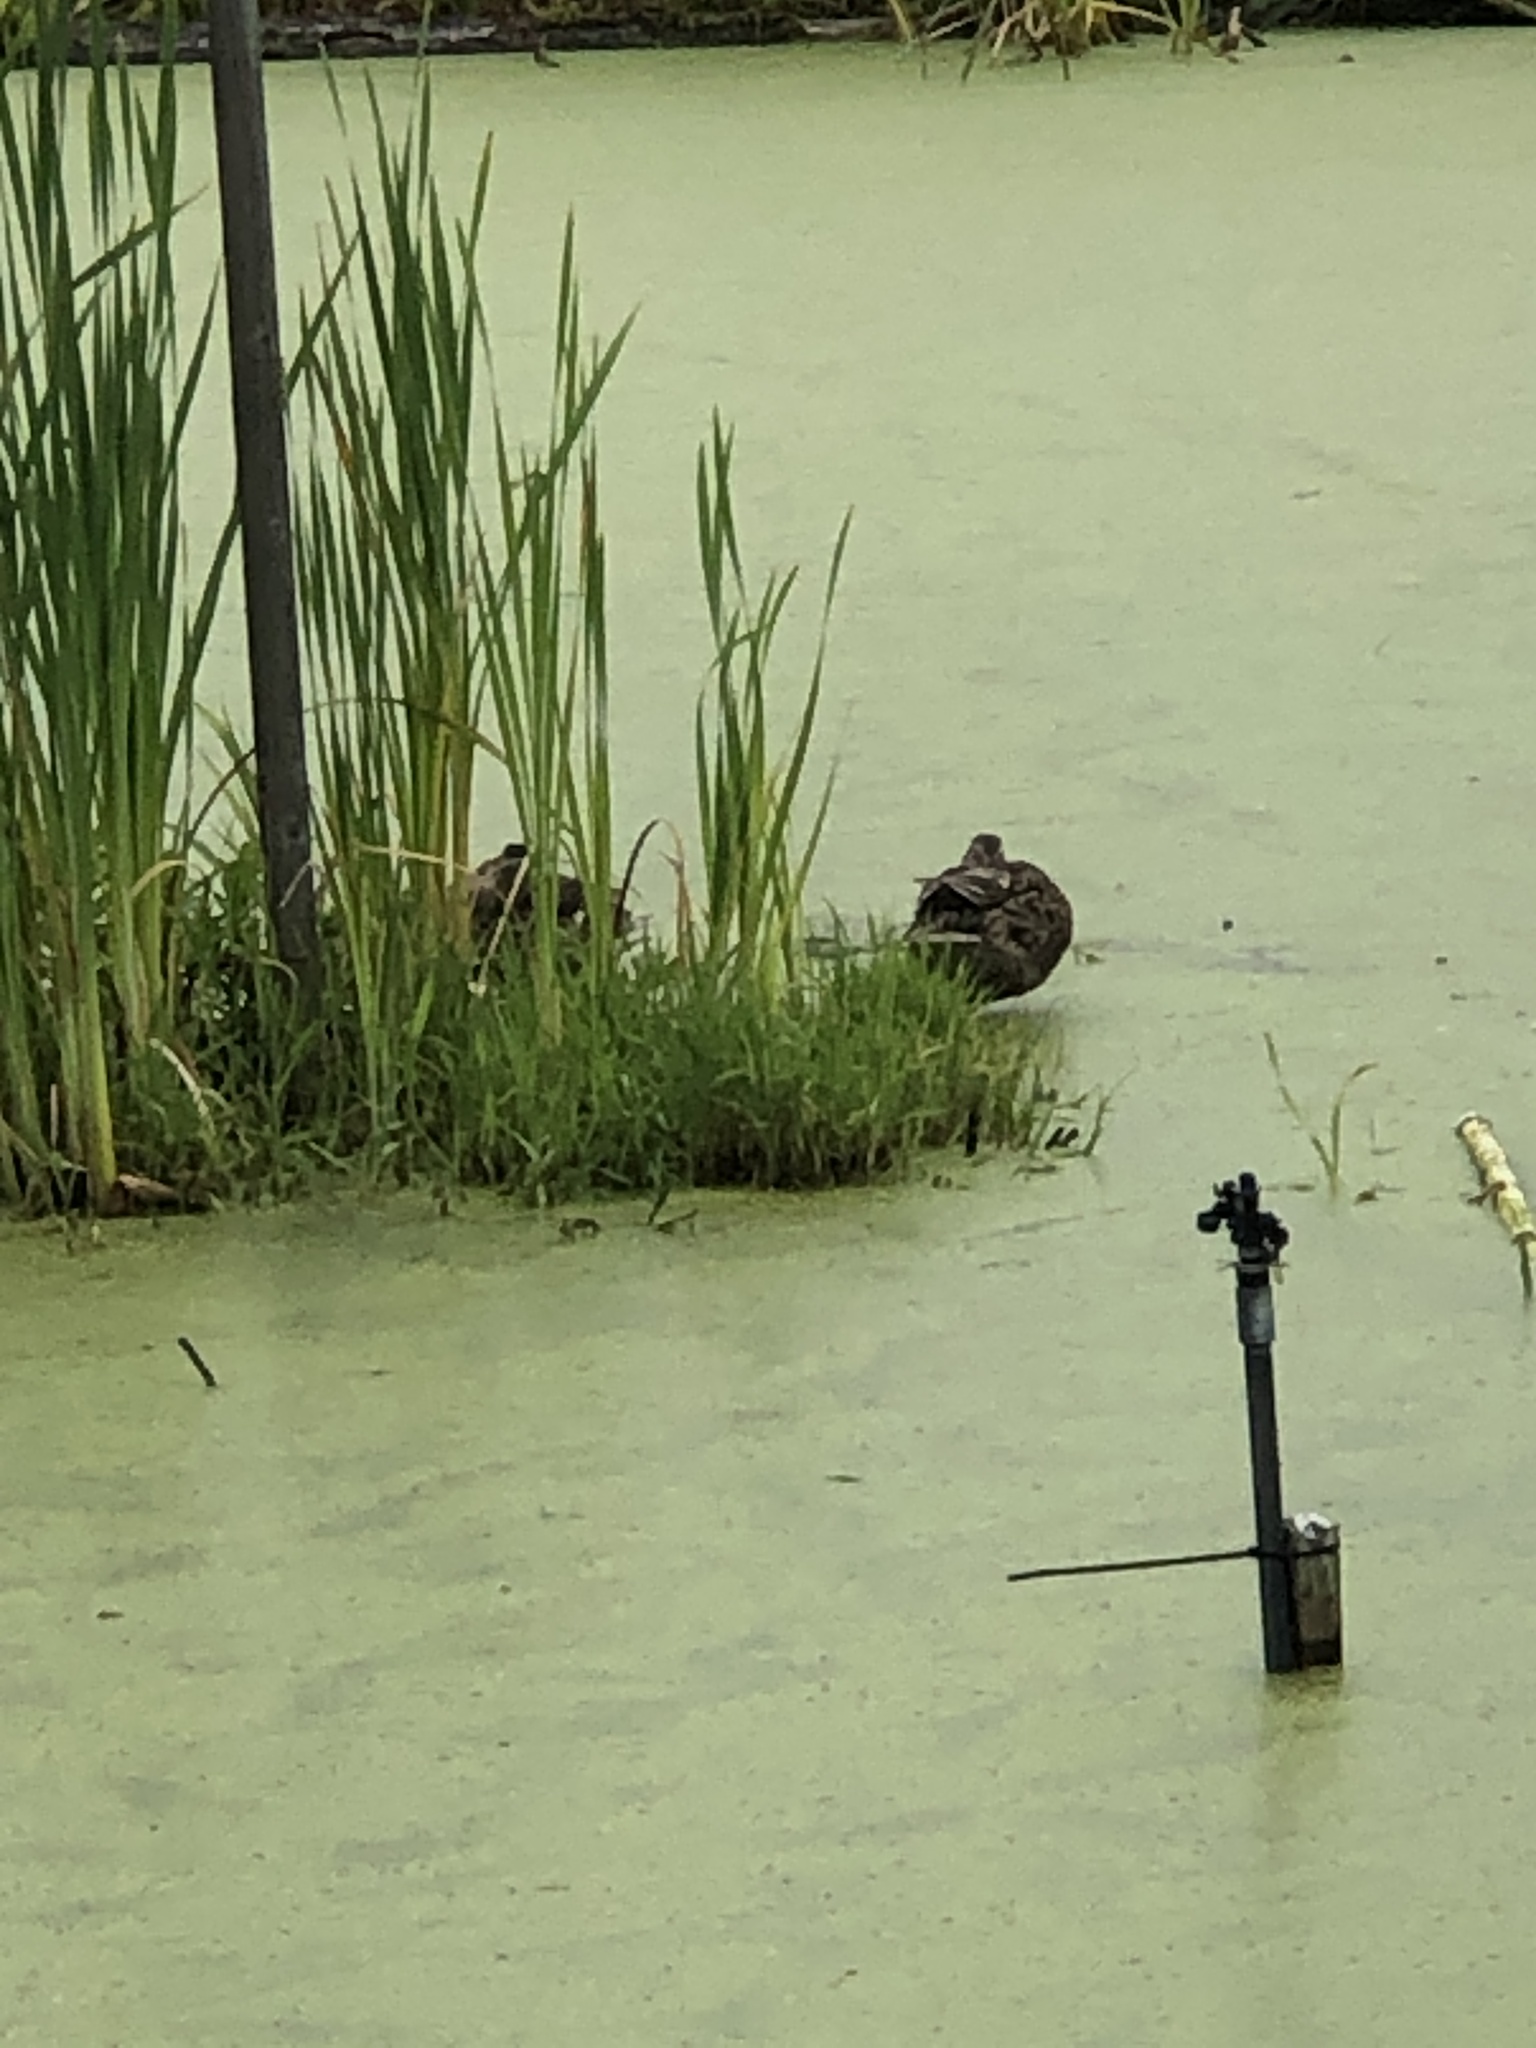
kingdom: Animalia
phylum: Chordata
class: Aves
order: Anseriformes
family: Anatidae
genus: Anas
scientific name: Anas platyrhynchos
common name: Mallard
